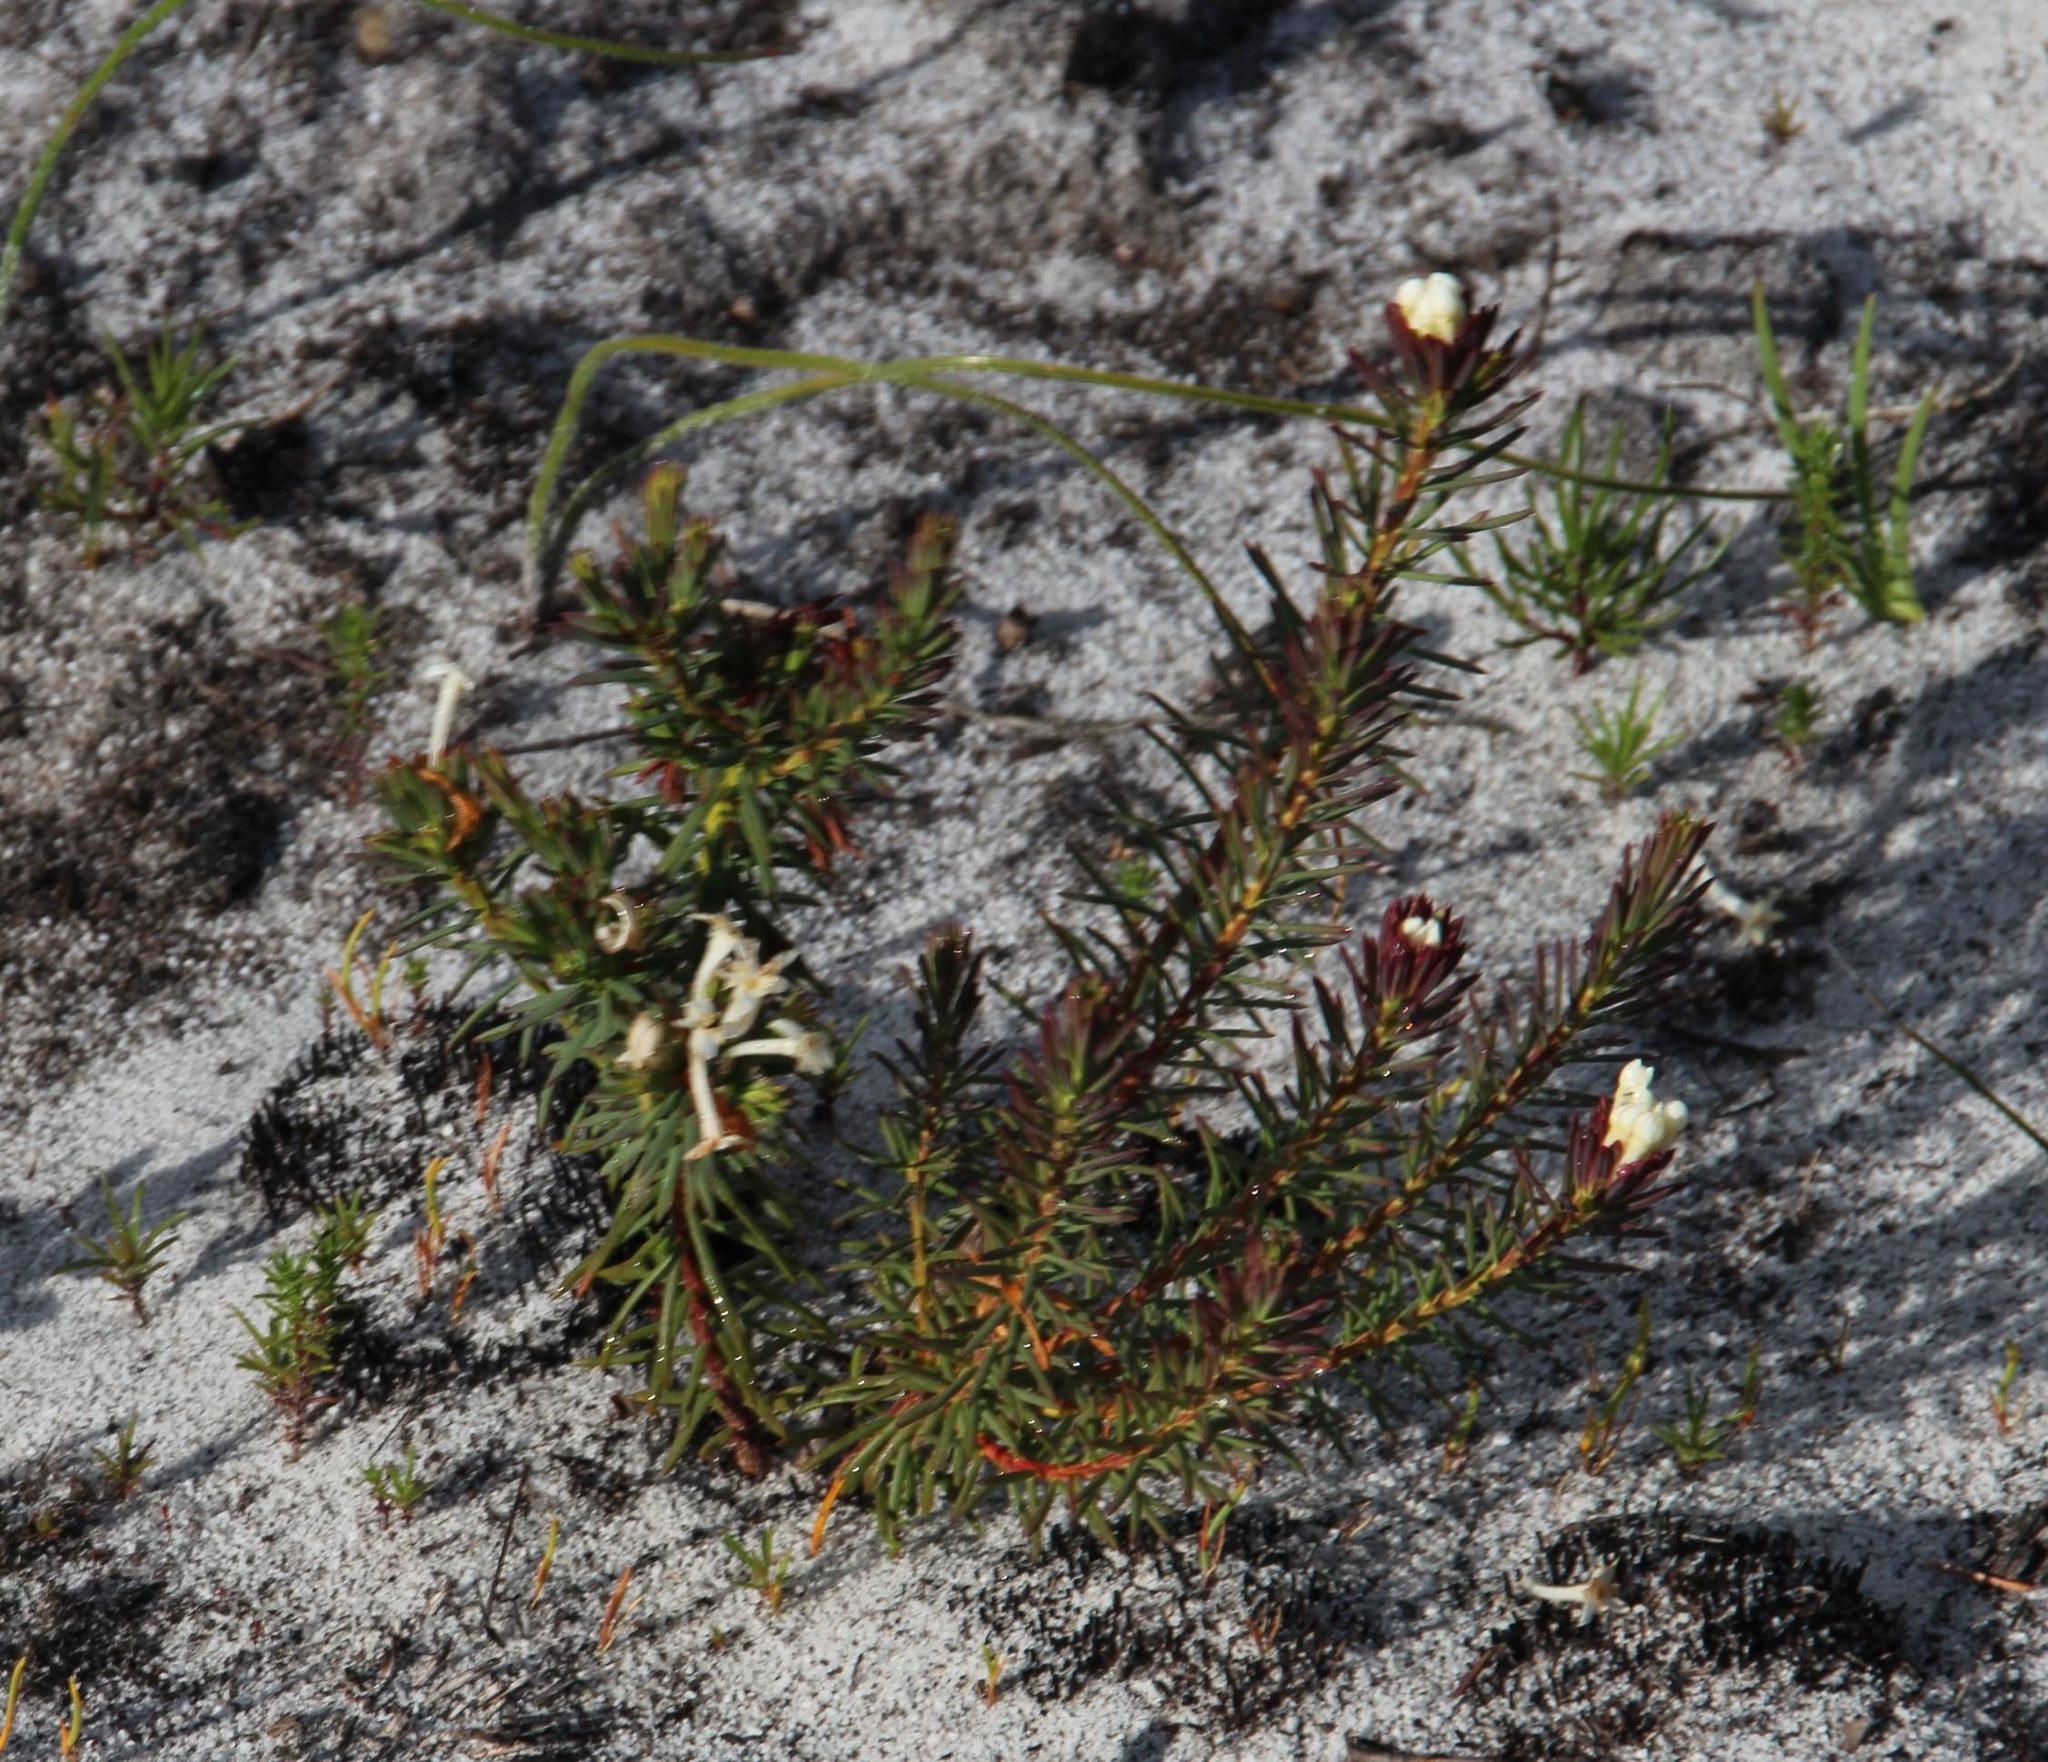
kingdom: Plantae
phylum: Tracheophyta
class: Magnoliopsida
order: Malvales
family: Thymelaeaceae
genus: Gnidia
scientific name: Gnidia pinifolia
